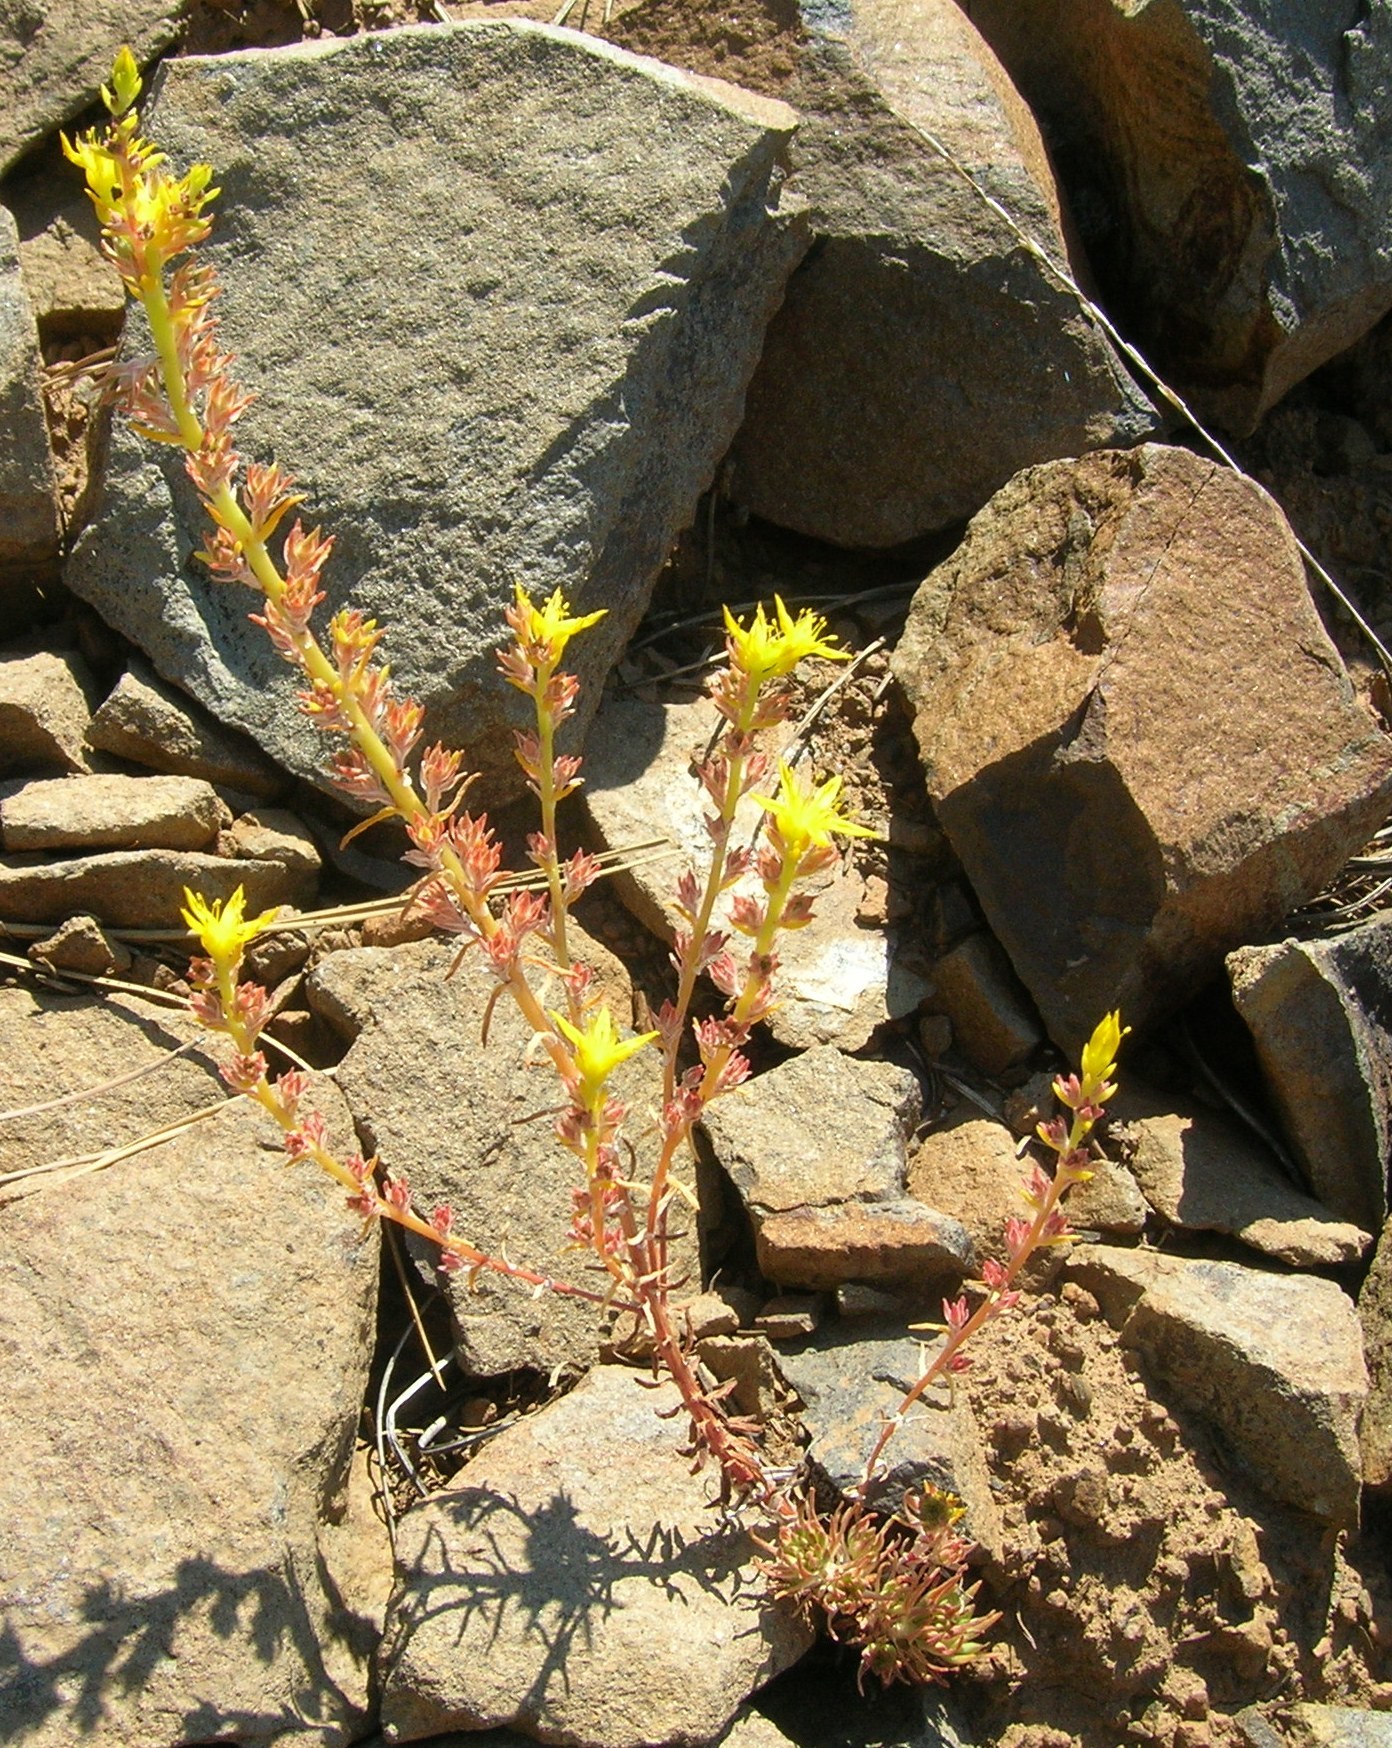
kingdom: Plantae
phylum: Tracheophyta
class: Magnoliopsida
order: Saxifragales
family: Crassulaceae
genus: Sedum
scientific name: Sedum stenopetalum
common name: Narrow-petaled stonecrop
